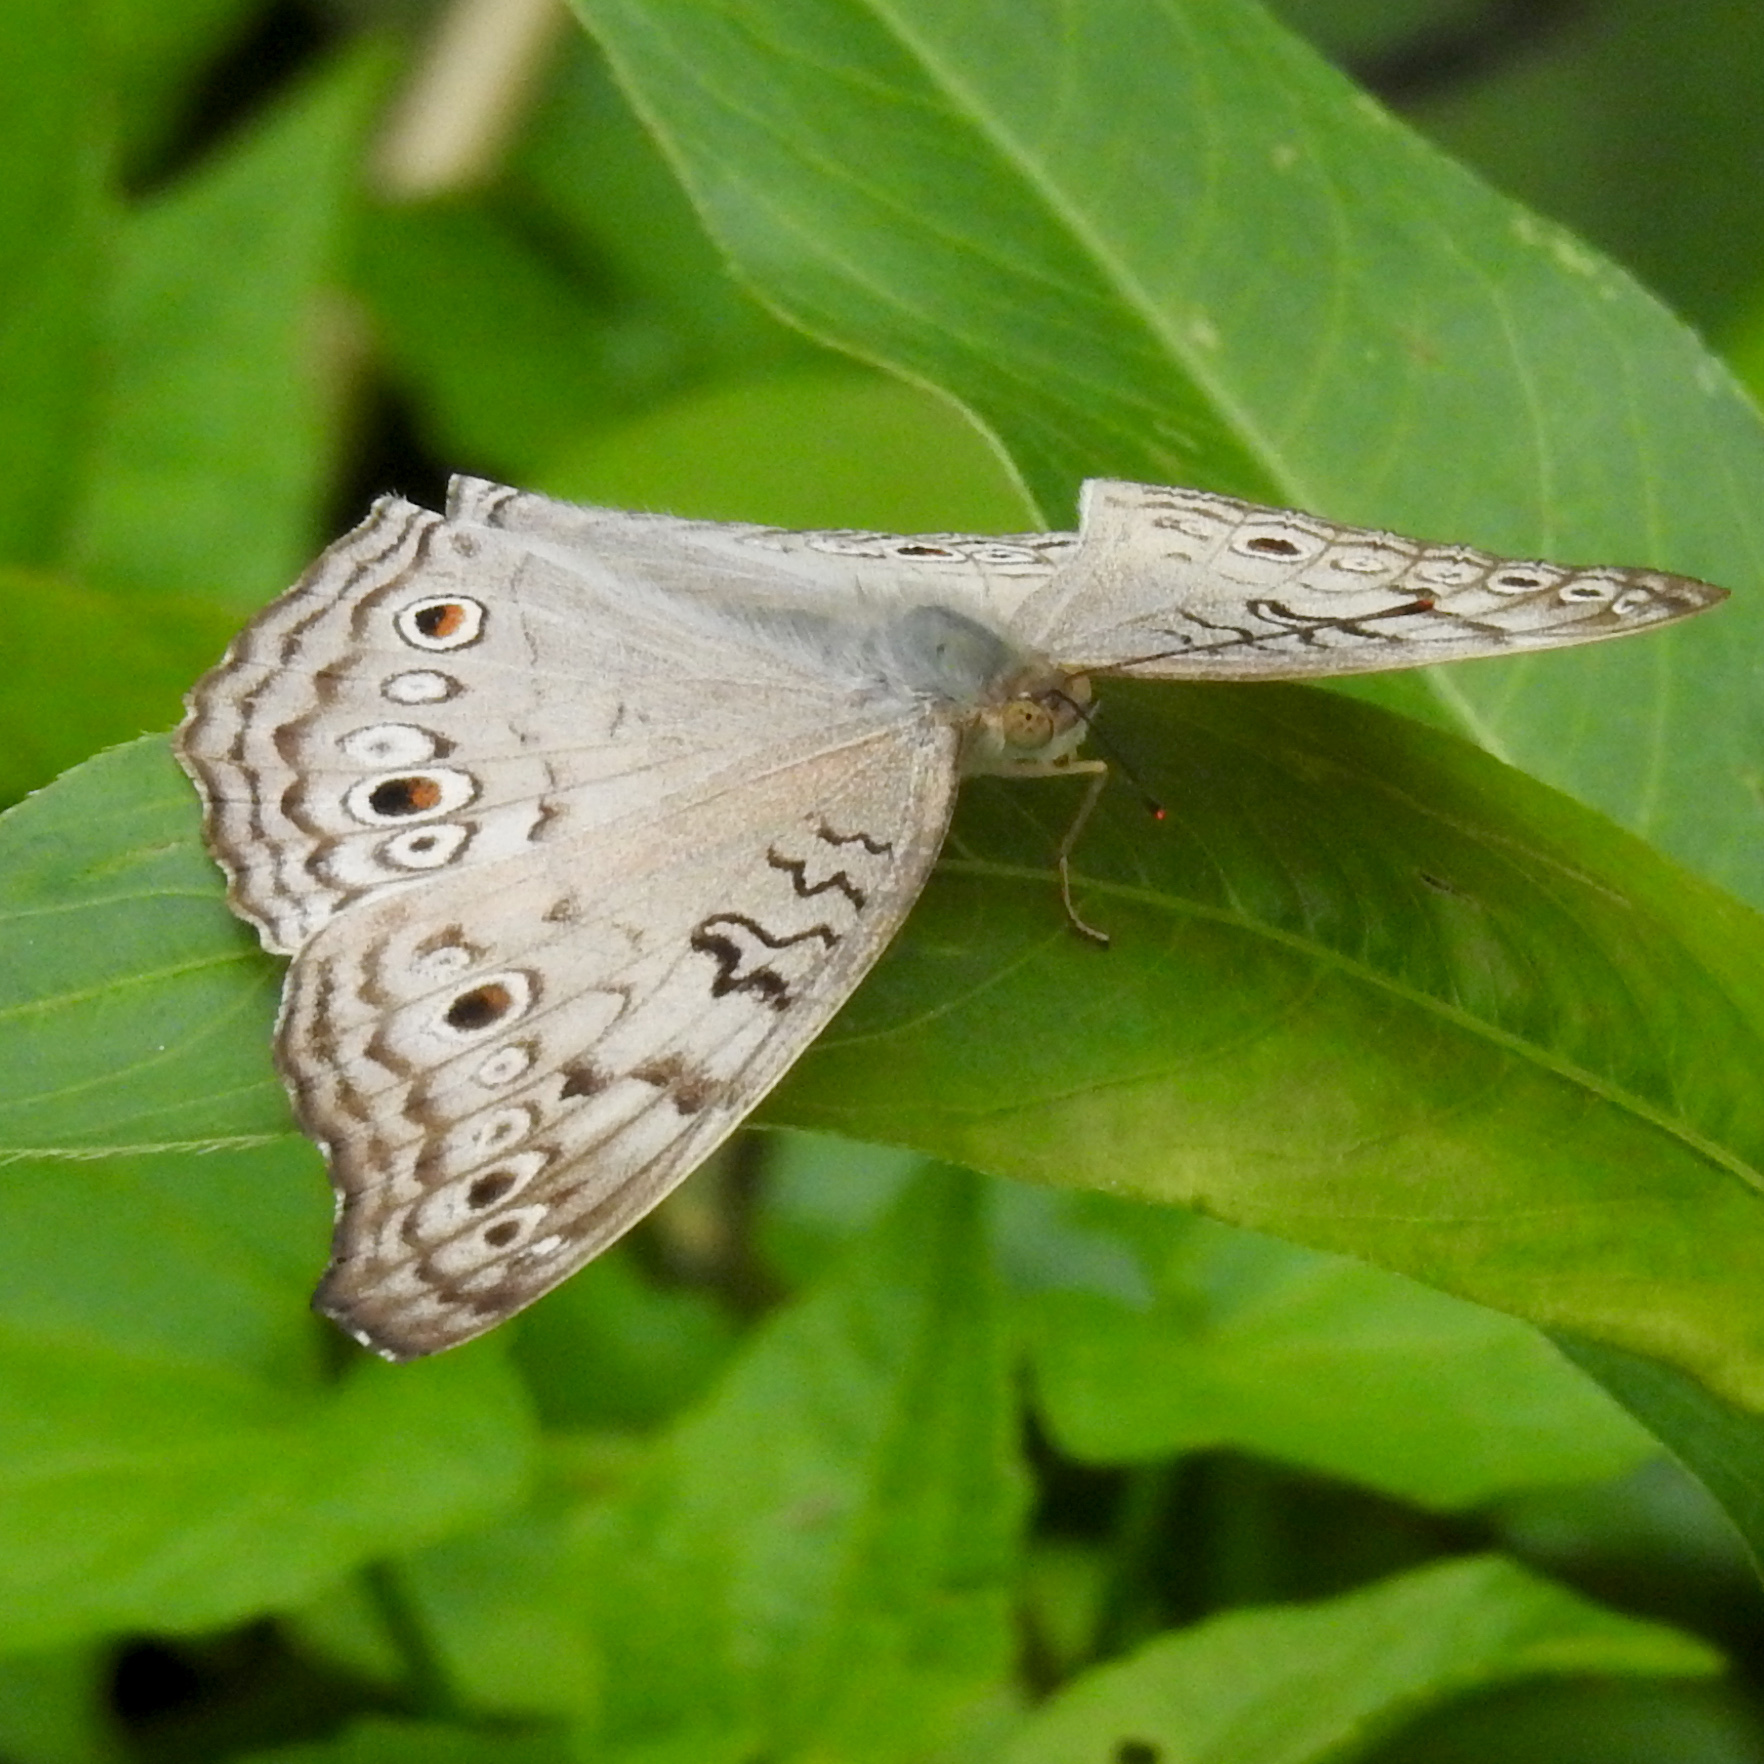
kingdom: Animalia
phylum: Arthropoda
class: Insecta
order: Lepidoptera
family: Nymphalidae
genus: Junonia
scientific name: Junonia atlites
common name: Grey pansy
